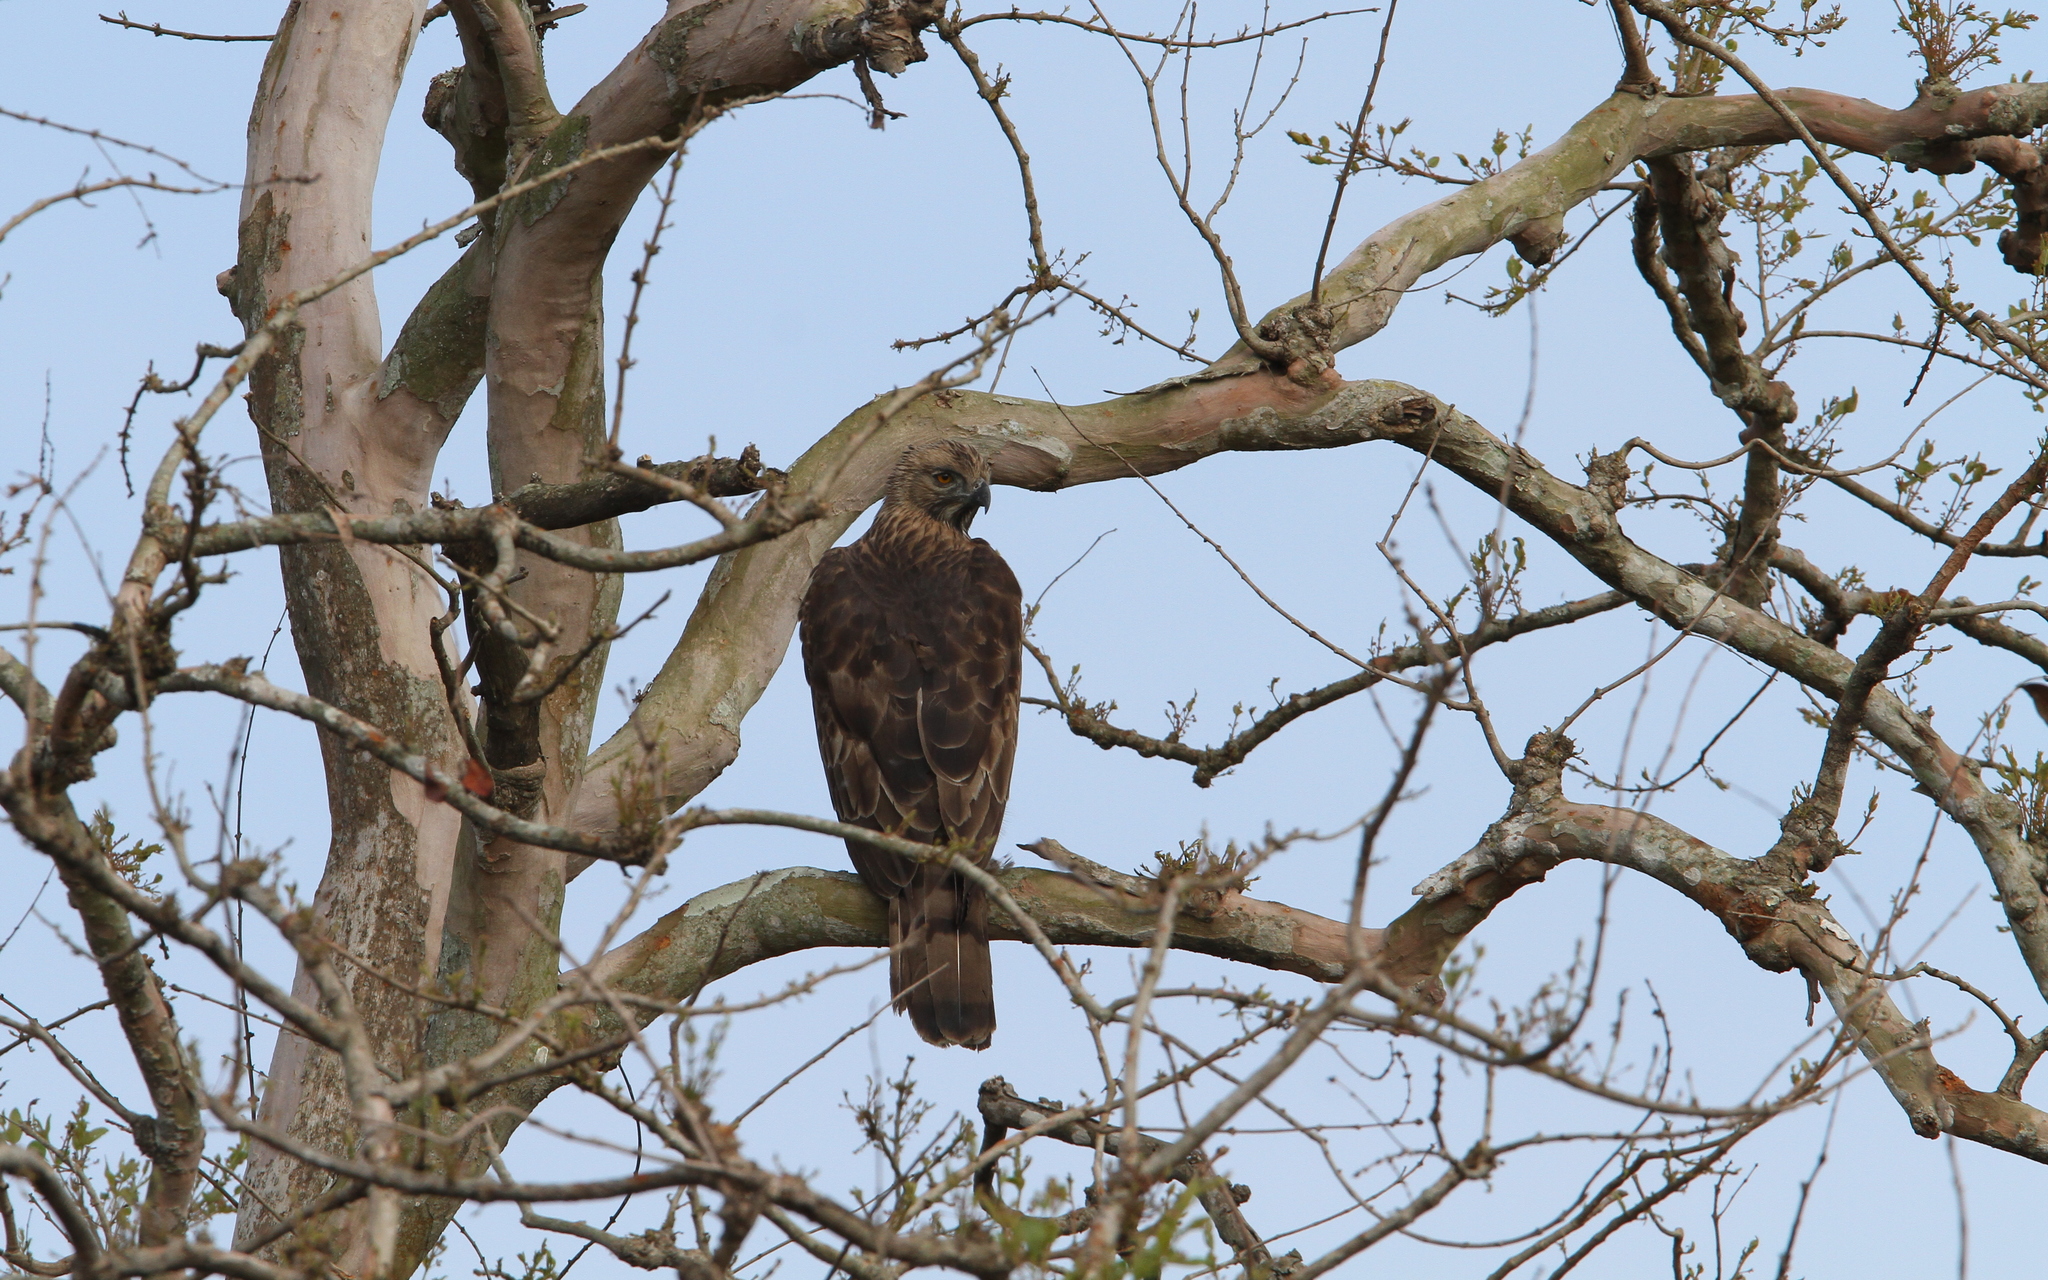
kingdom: Animalia
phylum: Chordata
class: Aves
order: Accipitriformes
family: Accipitridae
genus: Pernis
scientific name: Pernis ptilorhynchus
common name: Crested honey buzzard
